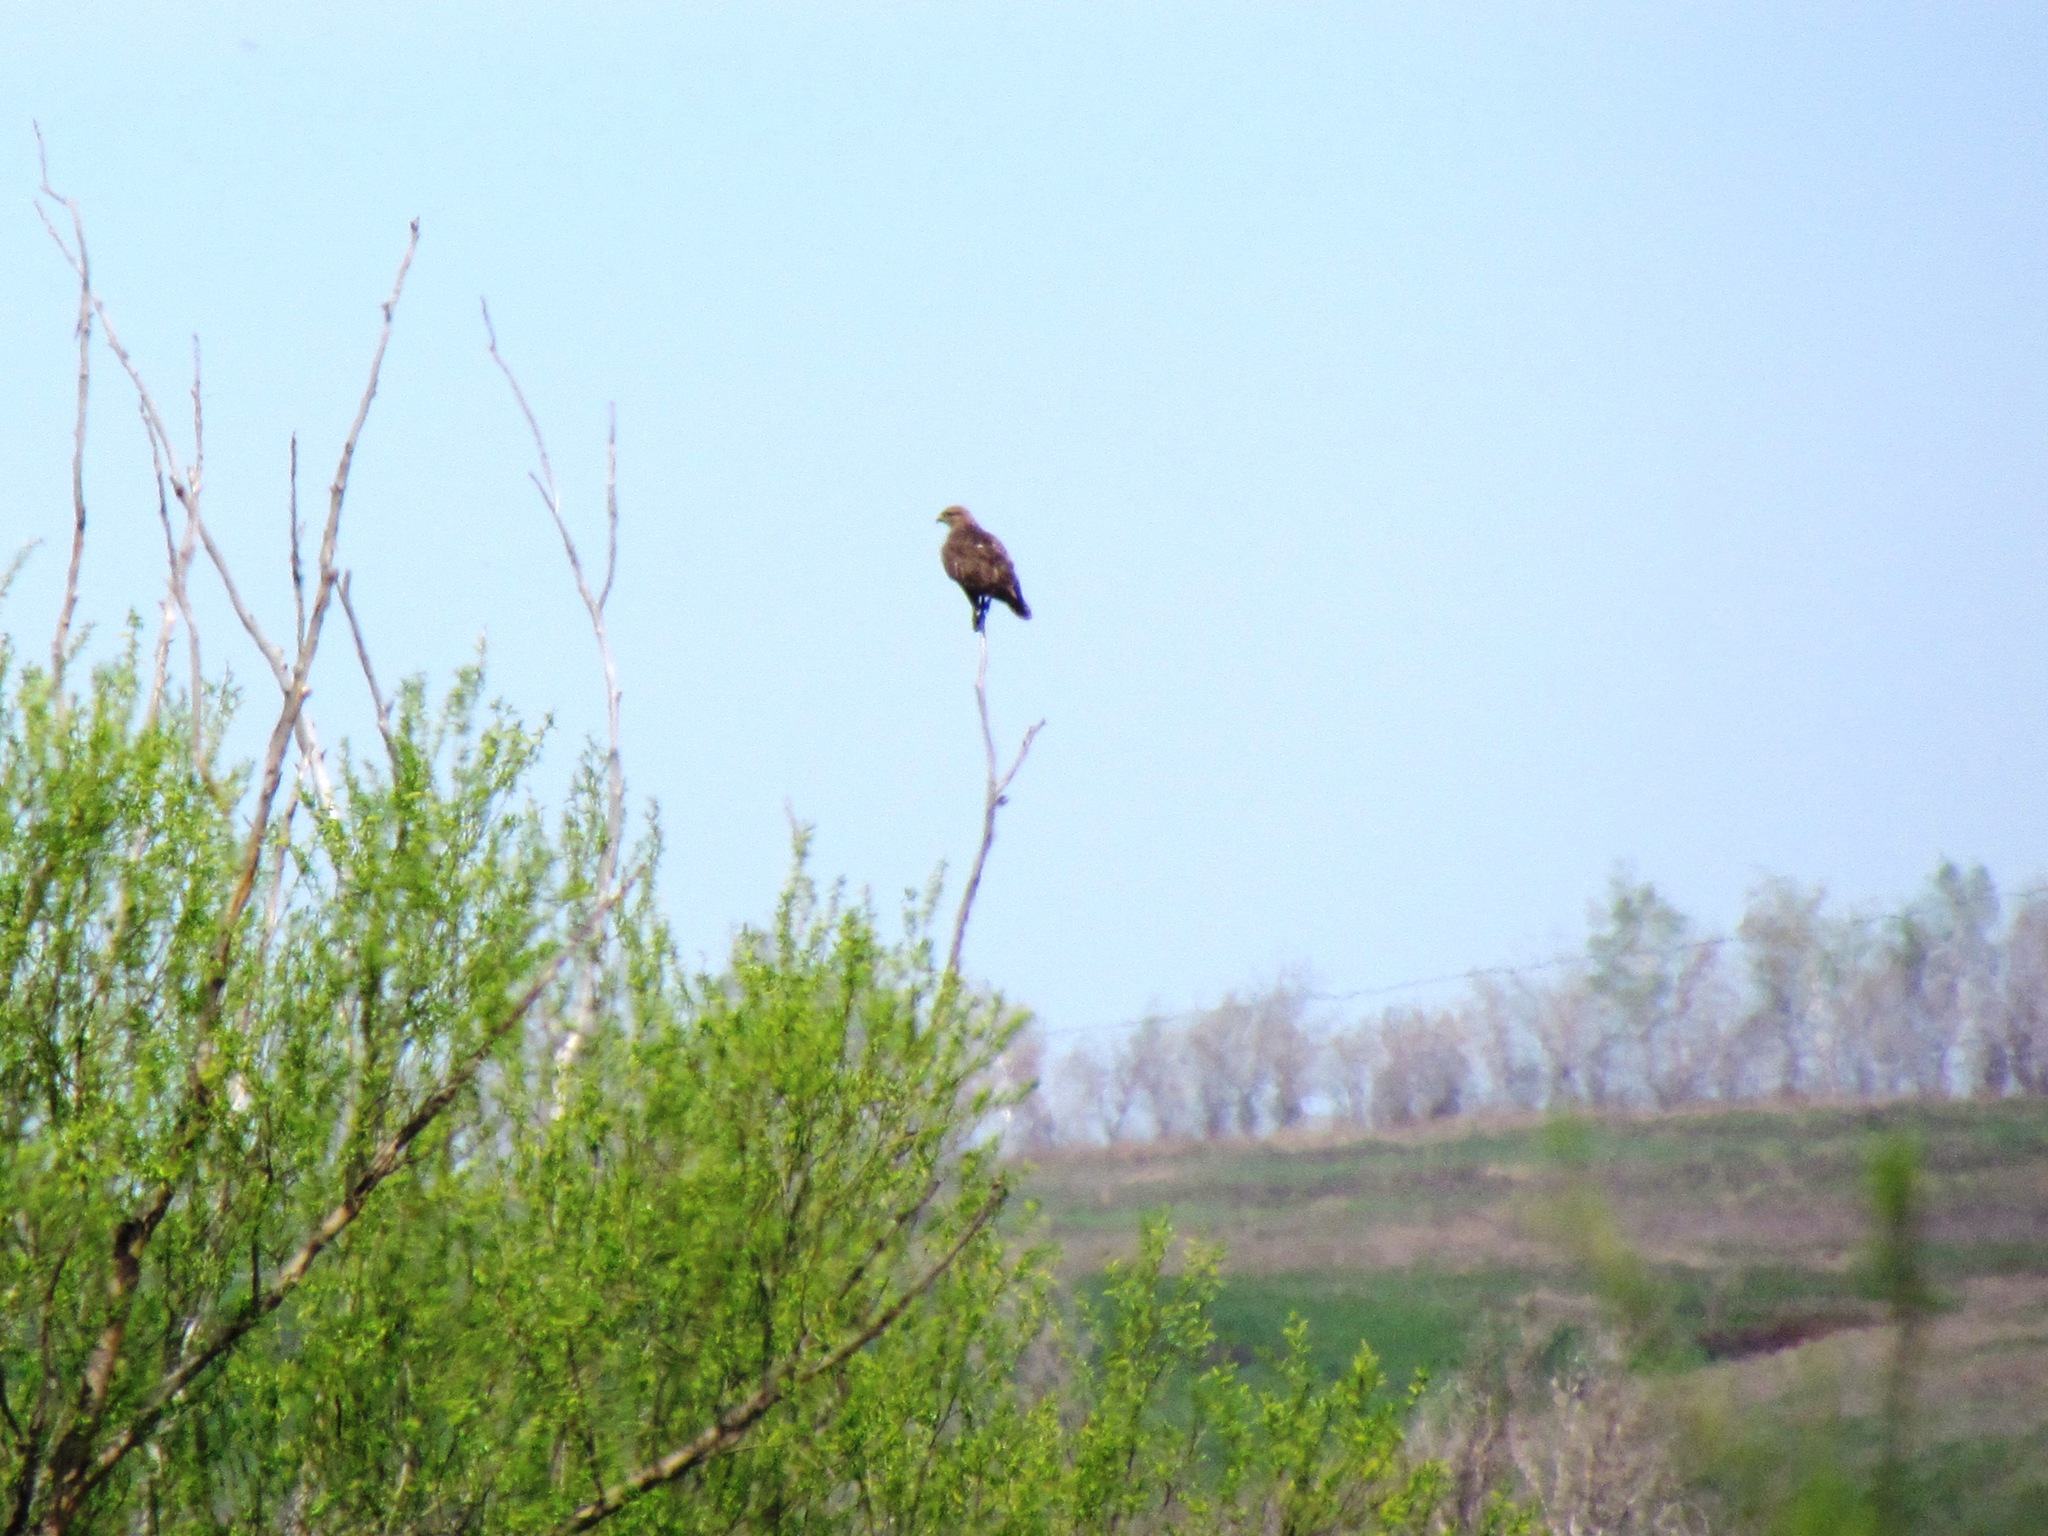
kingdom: Animalia
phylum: Chordata
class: Aves
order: Accipitriformes
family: Accipitridae
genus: Buteo
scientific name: Buteo buteo
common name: Common buzzard
